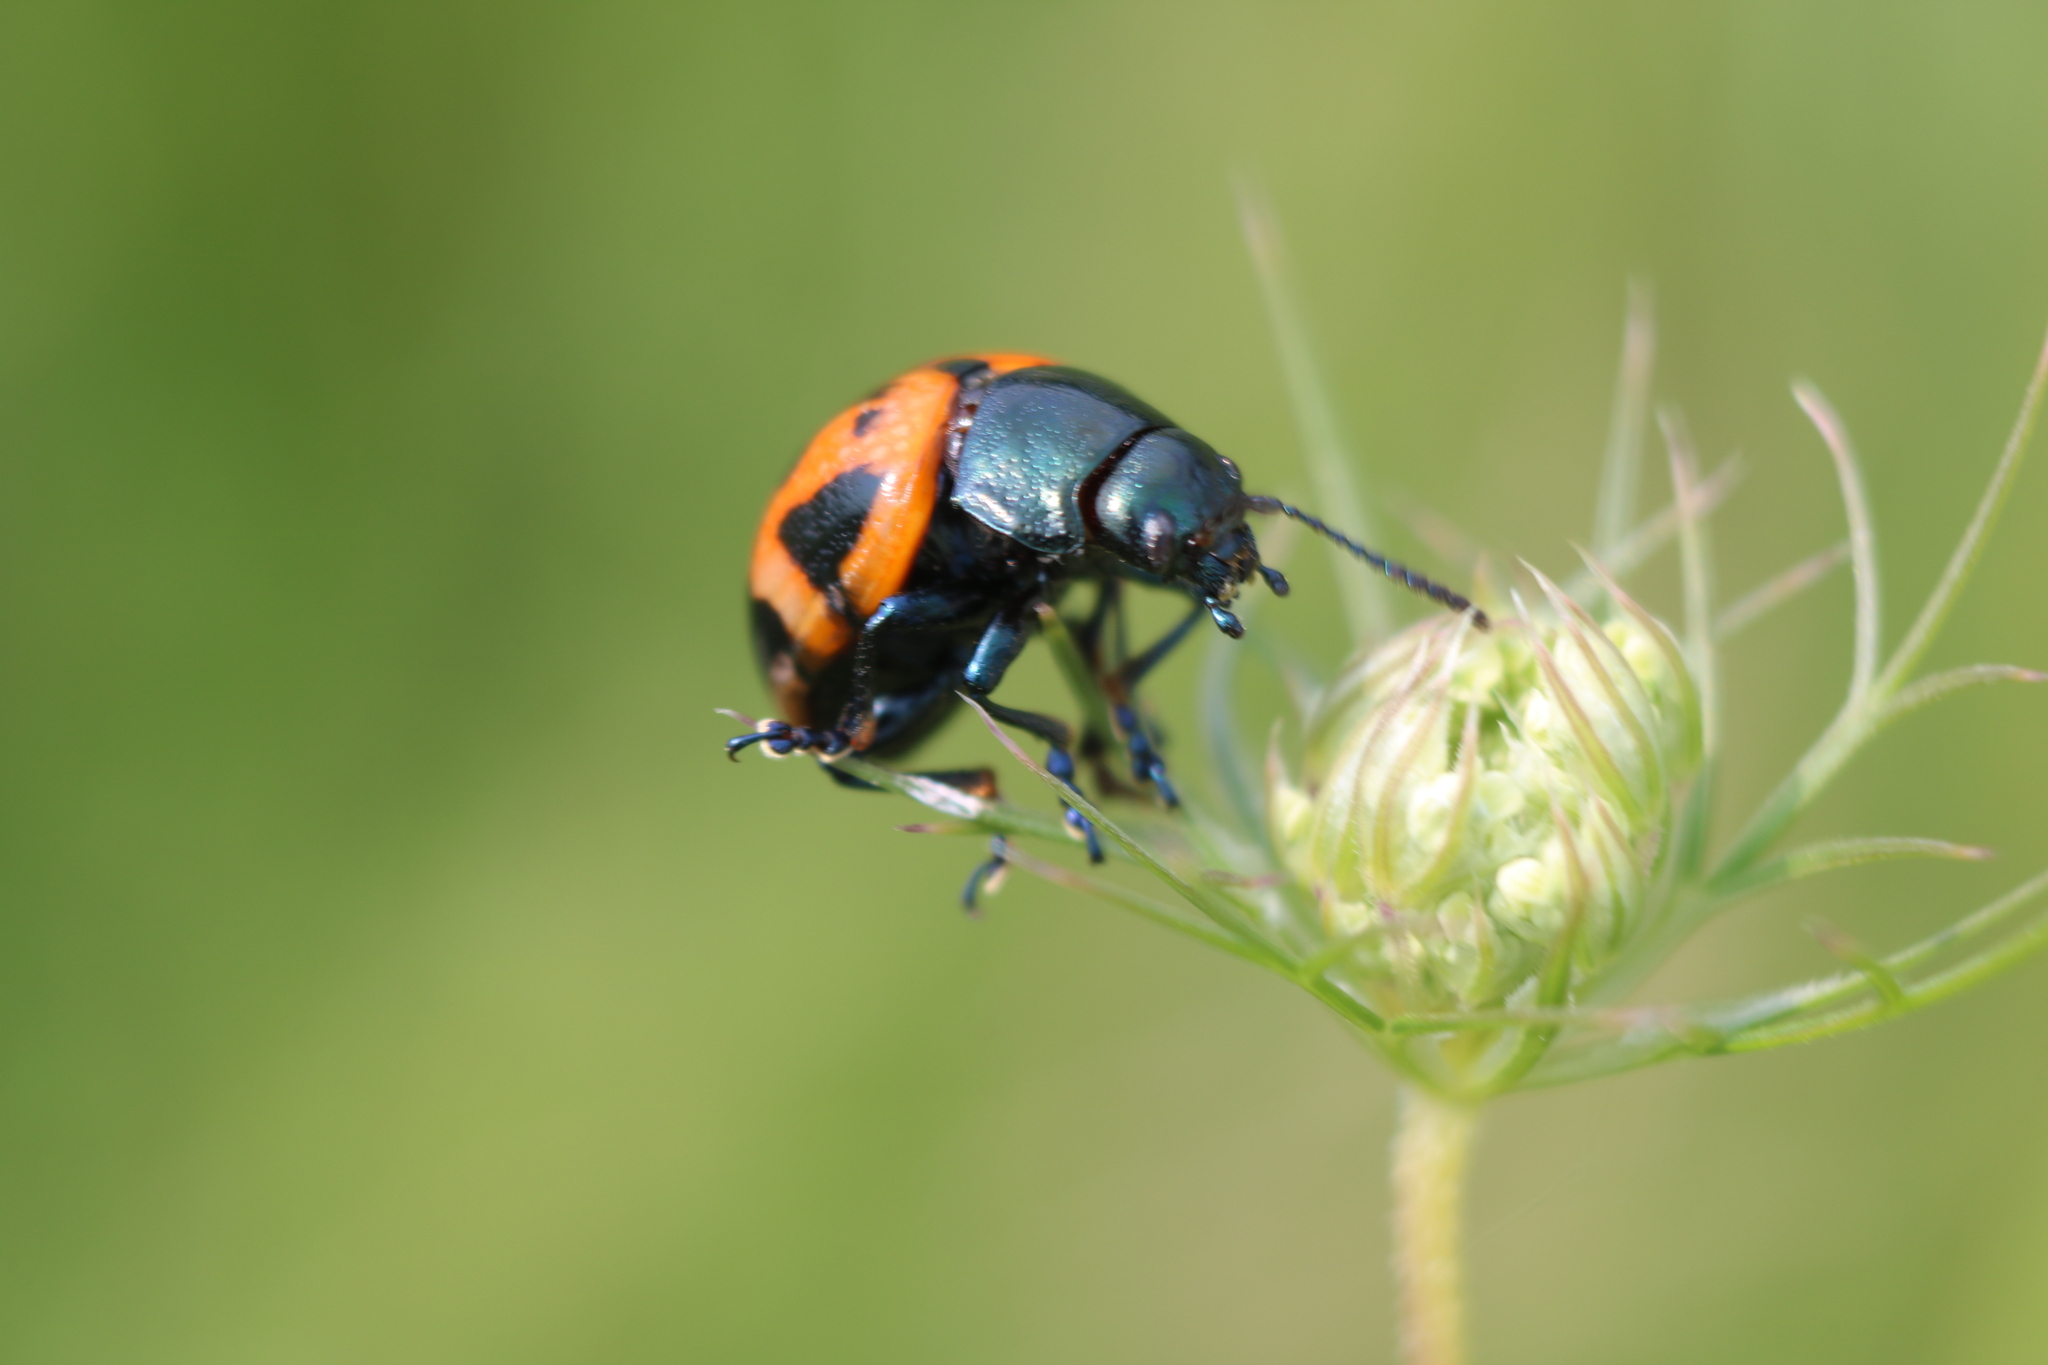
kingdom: Animalia
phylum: Arthropoda
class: Insecta
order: Coleoptera
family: Chrysomelidae
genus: Labidomera
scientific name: Labidomera clivicollis
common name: Swamp milkweed leaf beetle
